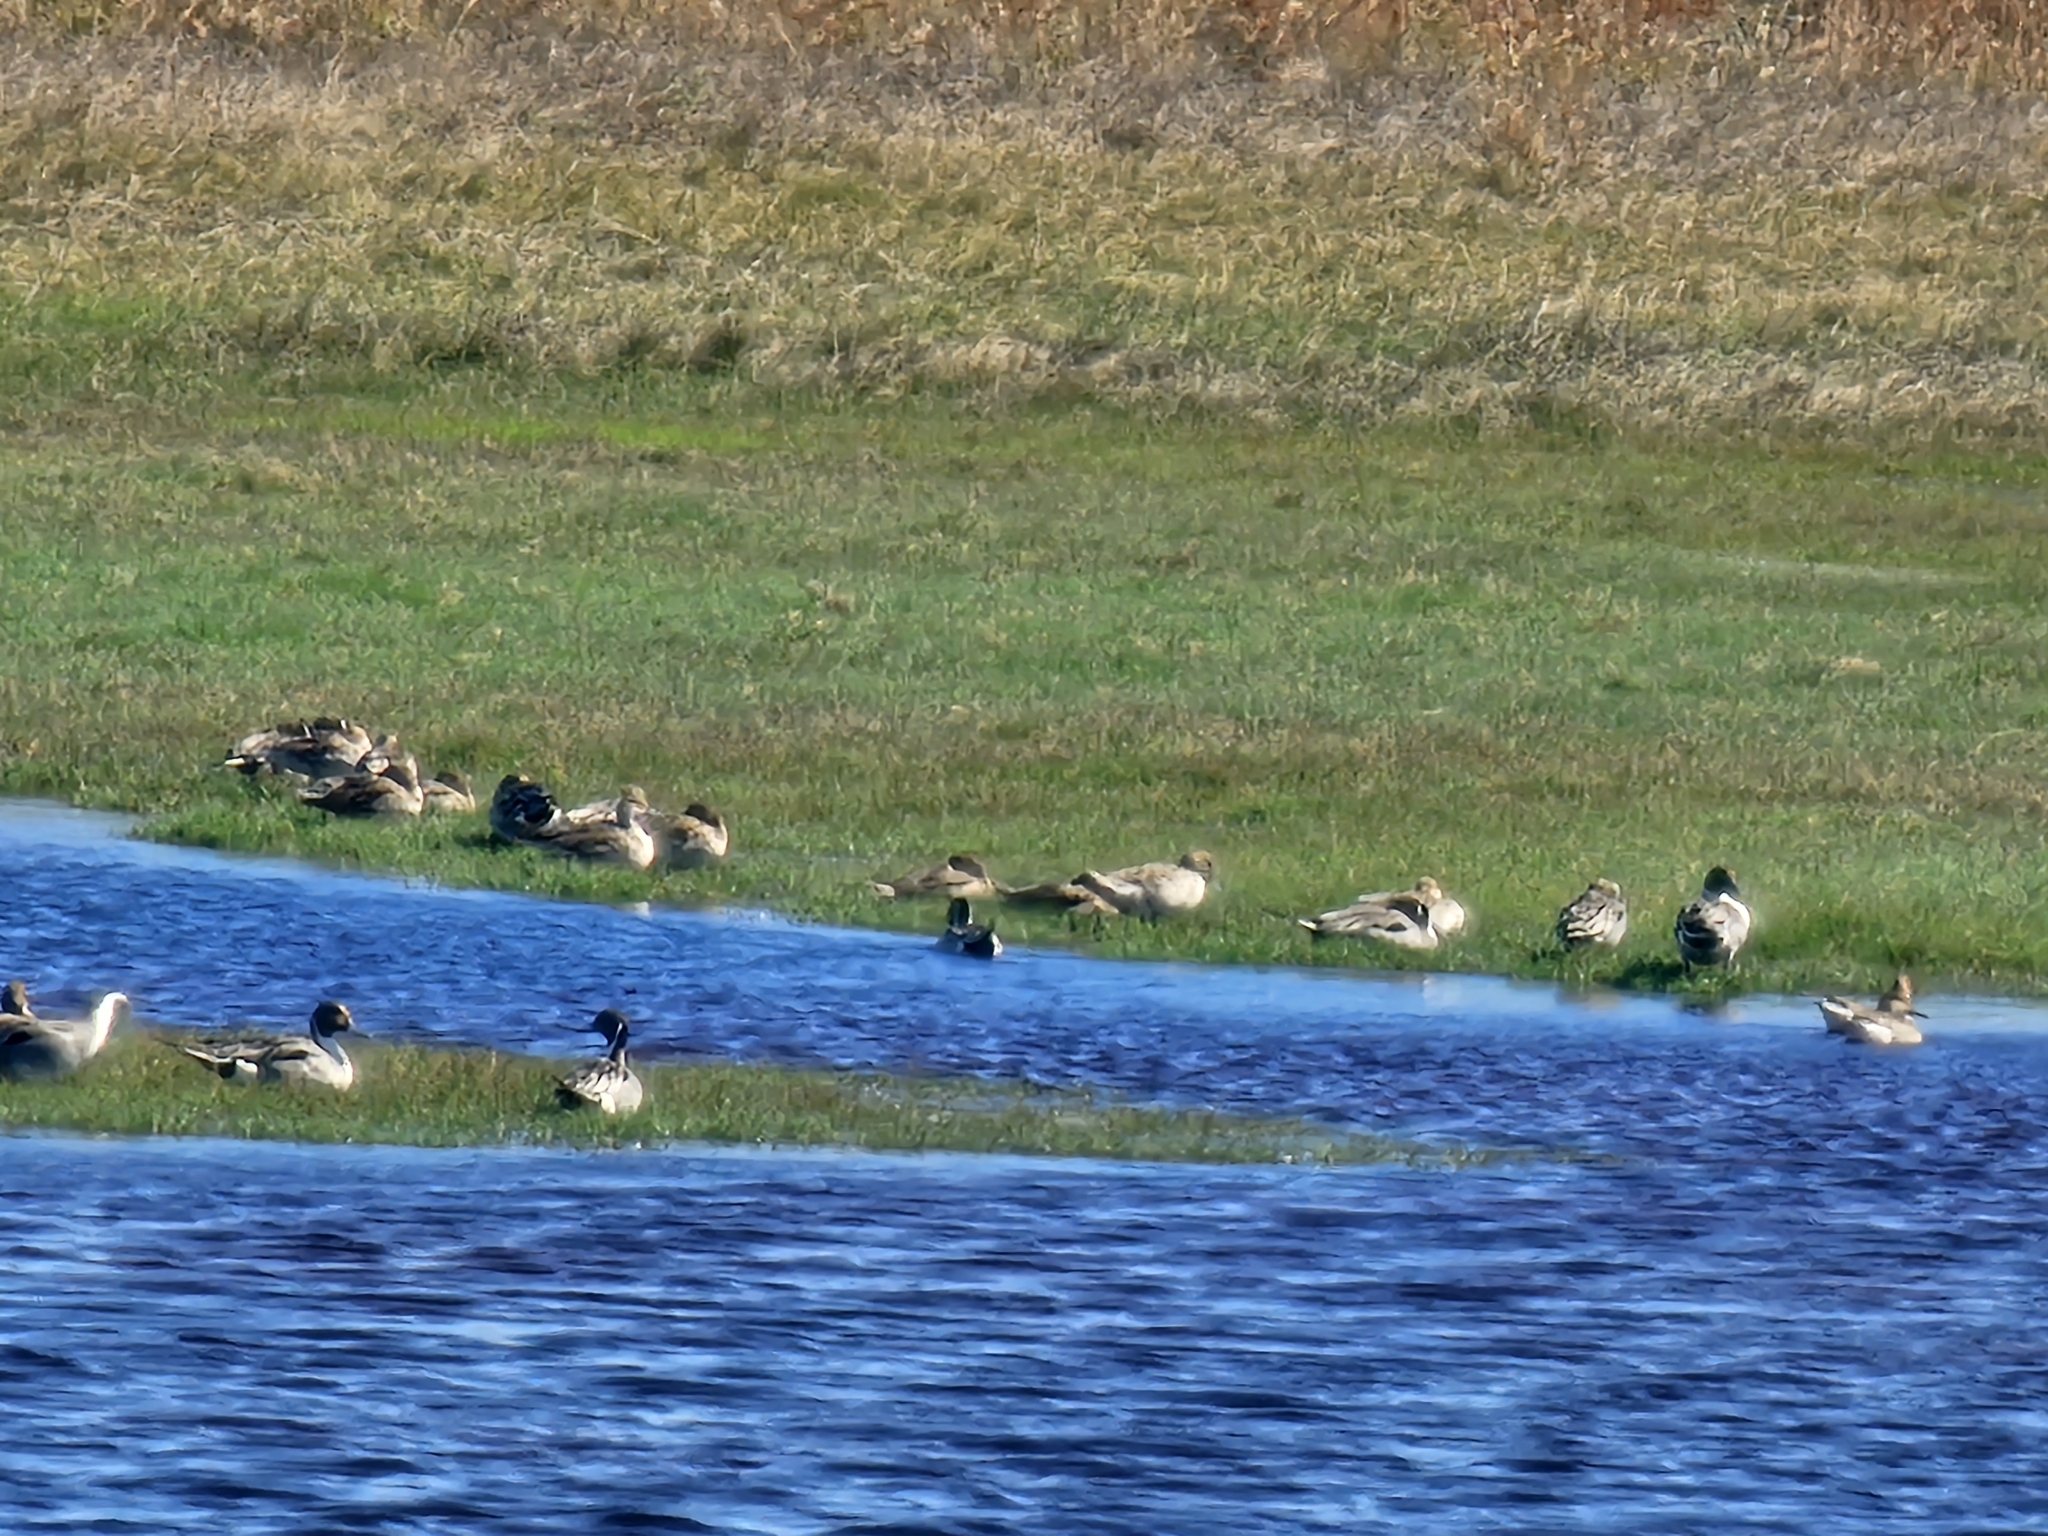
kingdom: Animalia
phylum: Chordata
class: Aves
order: Anseriformes
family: Anatidae
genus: Anas
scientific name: Anas acuta
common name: Northern pintail
